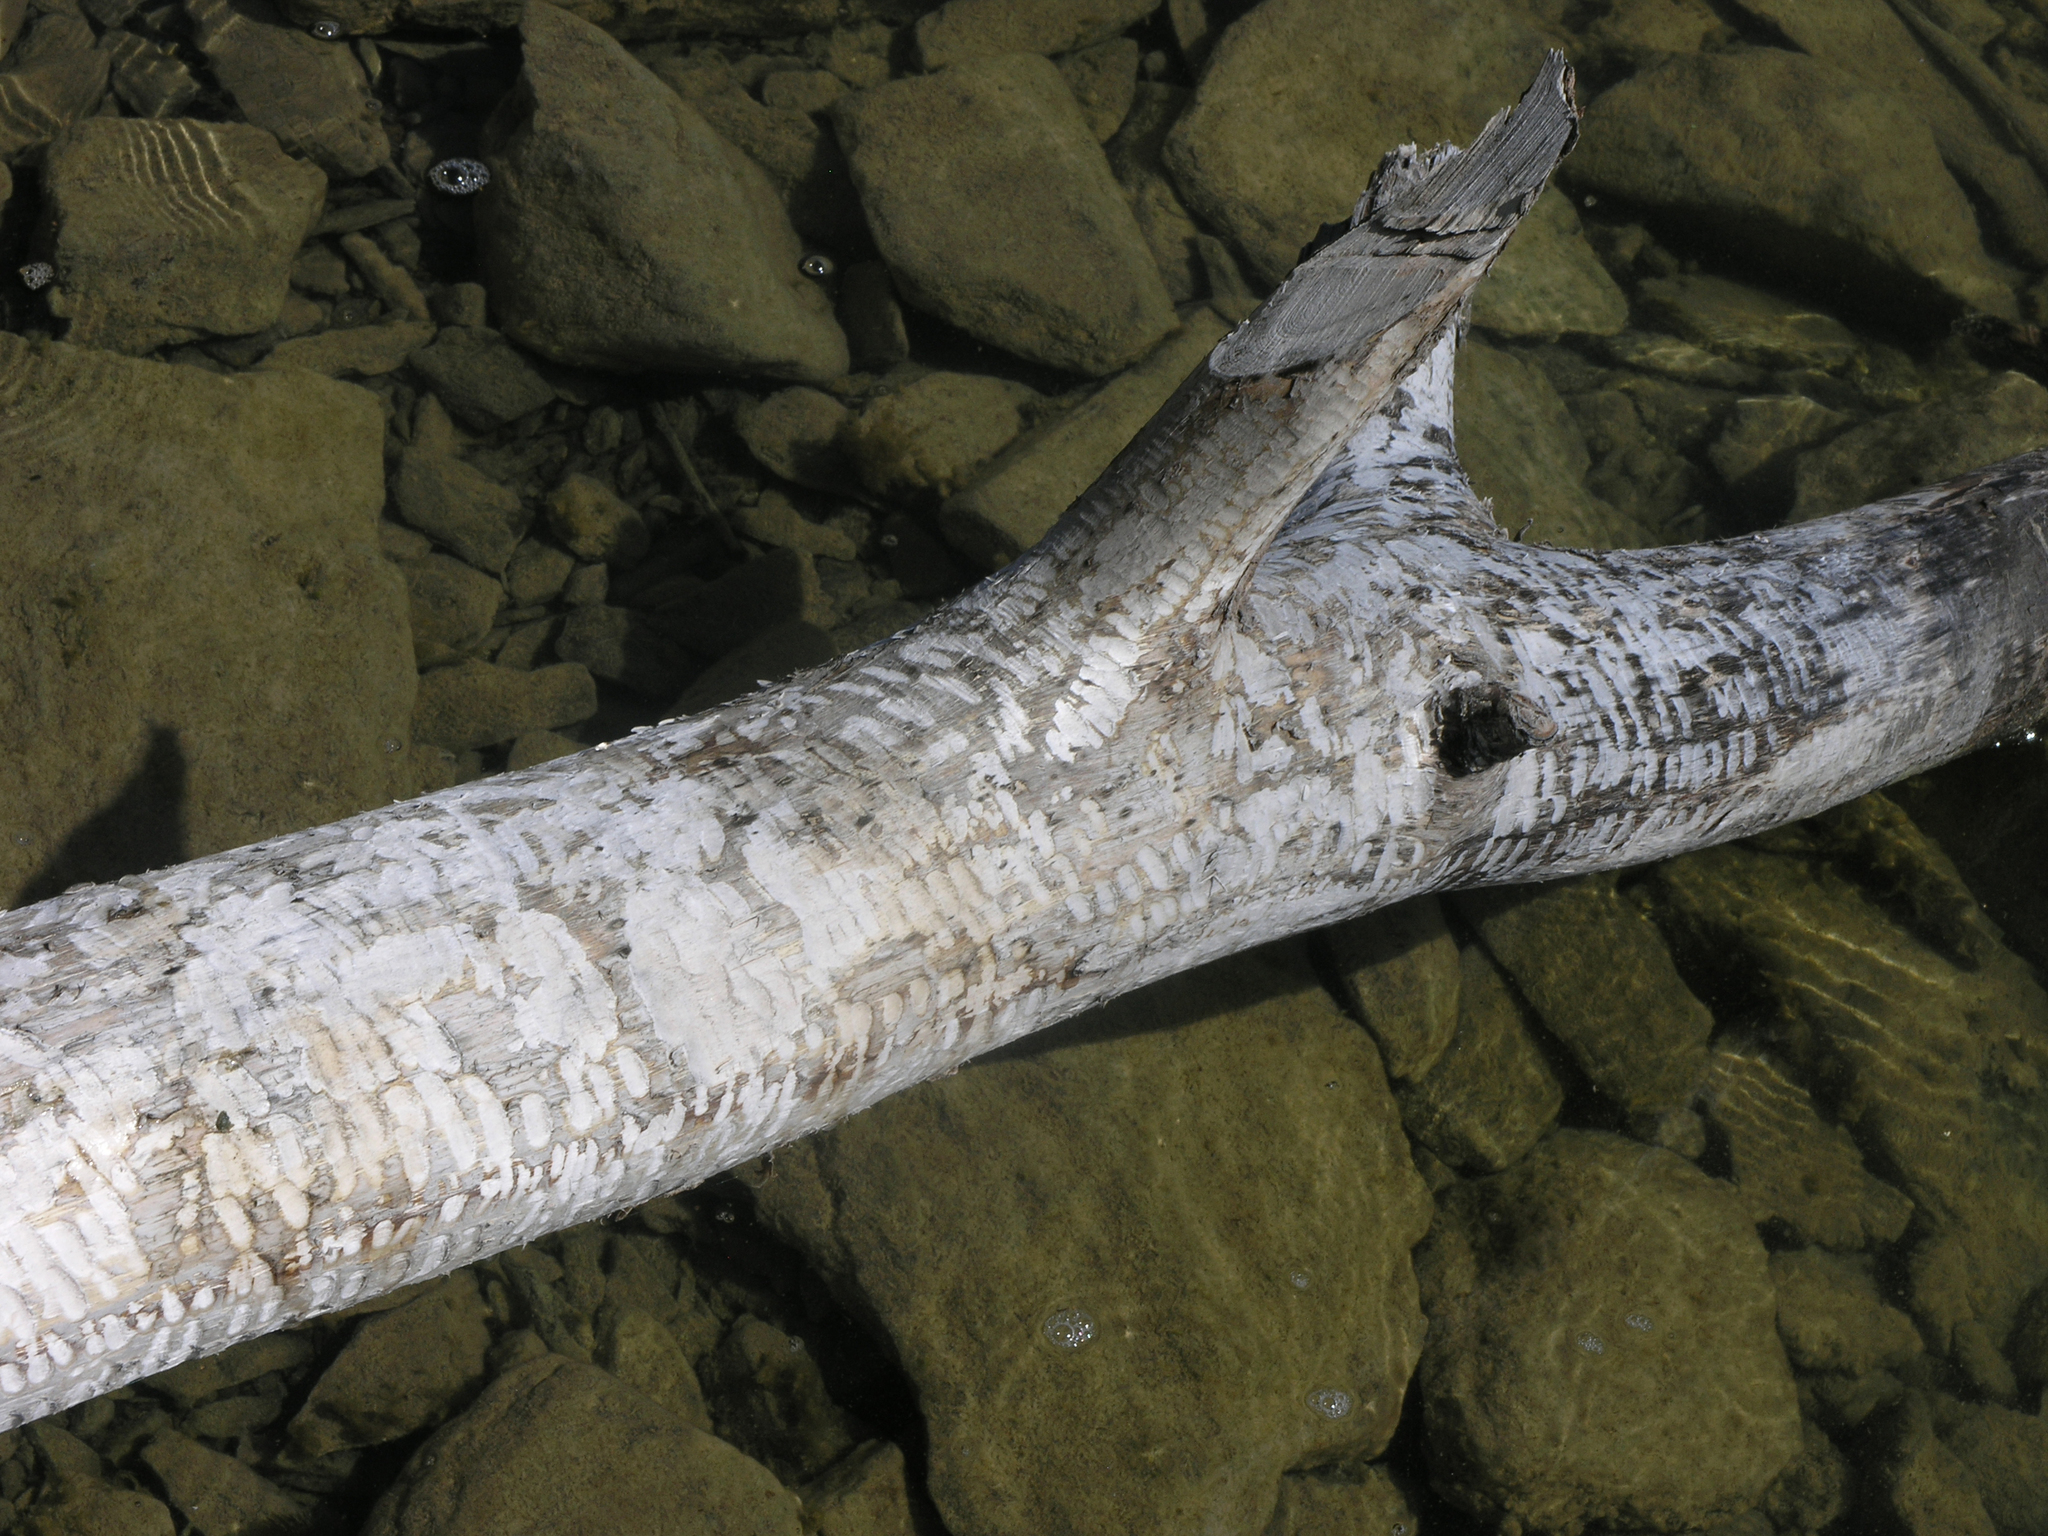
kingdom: Animalia
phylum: Chordata
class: Mammalia
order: Rodentia
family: Castoridae
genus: Castor
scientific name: Castor fiber
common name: Eurasian beaver
